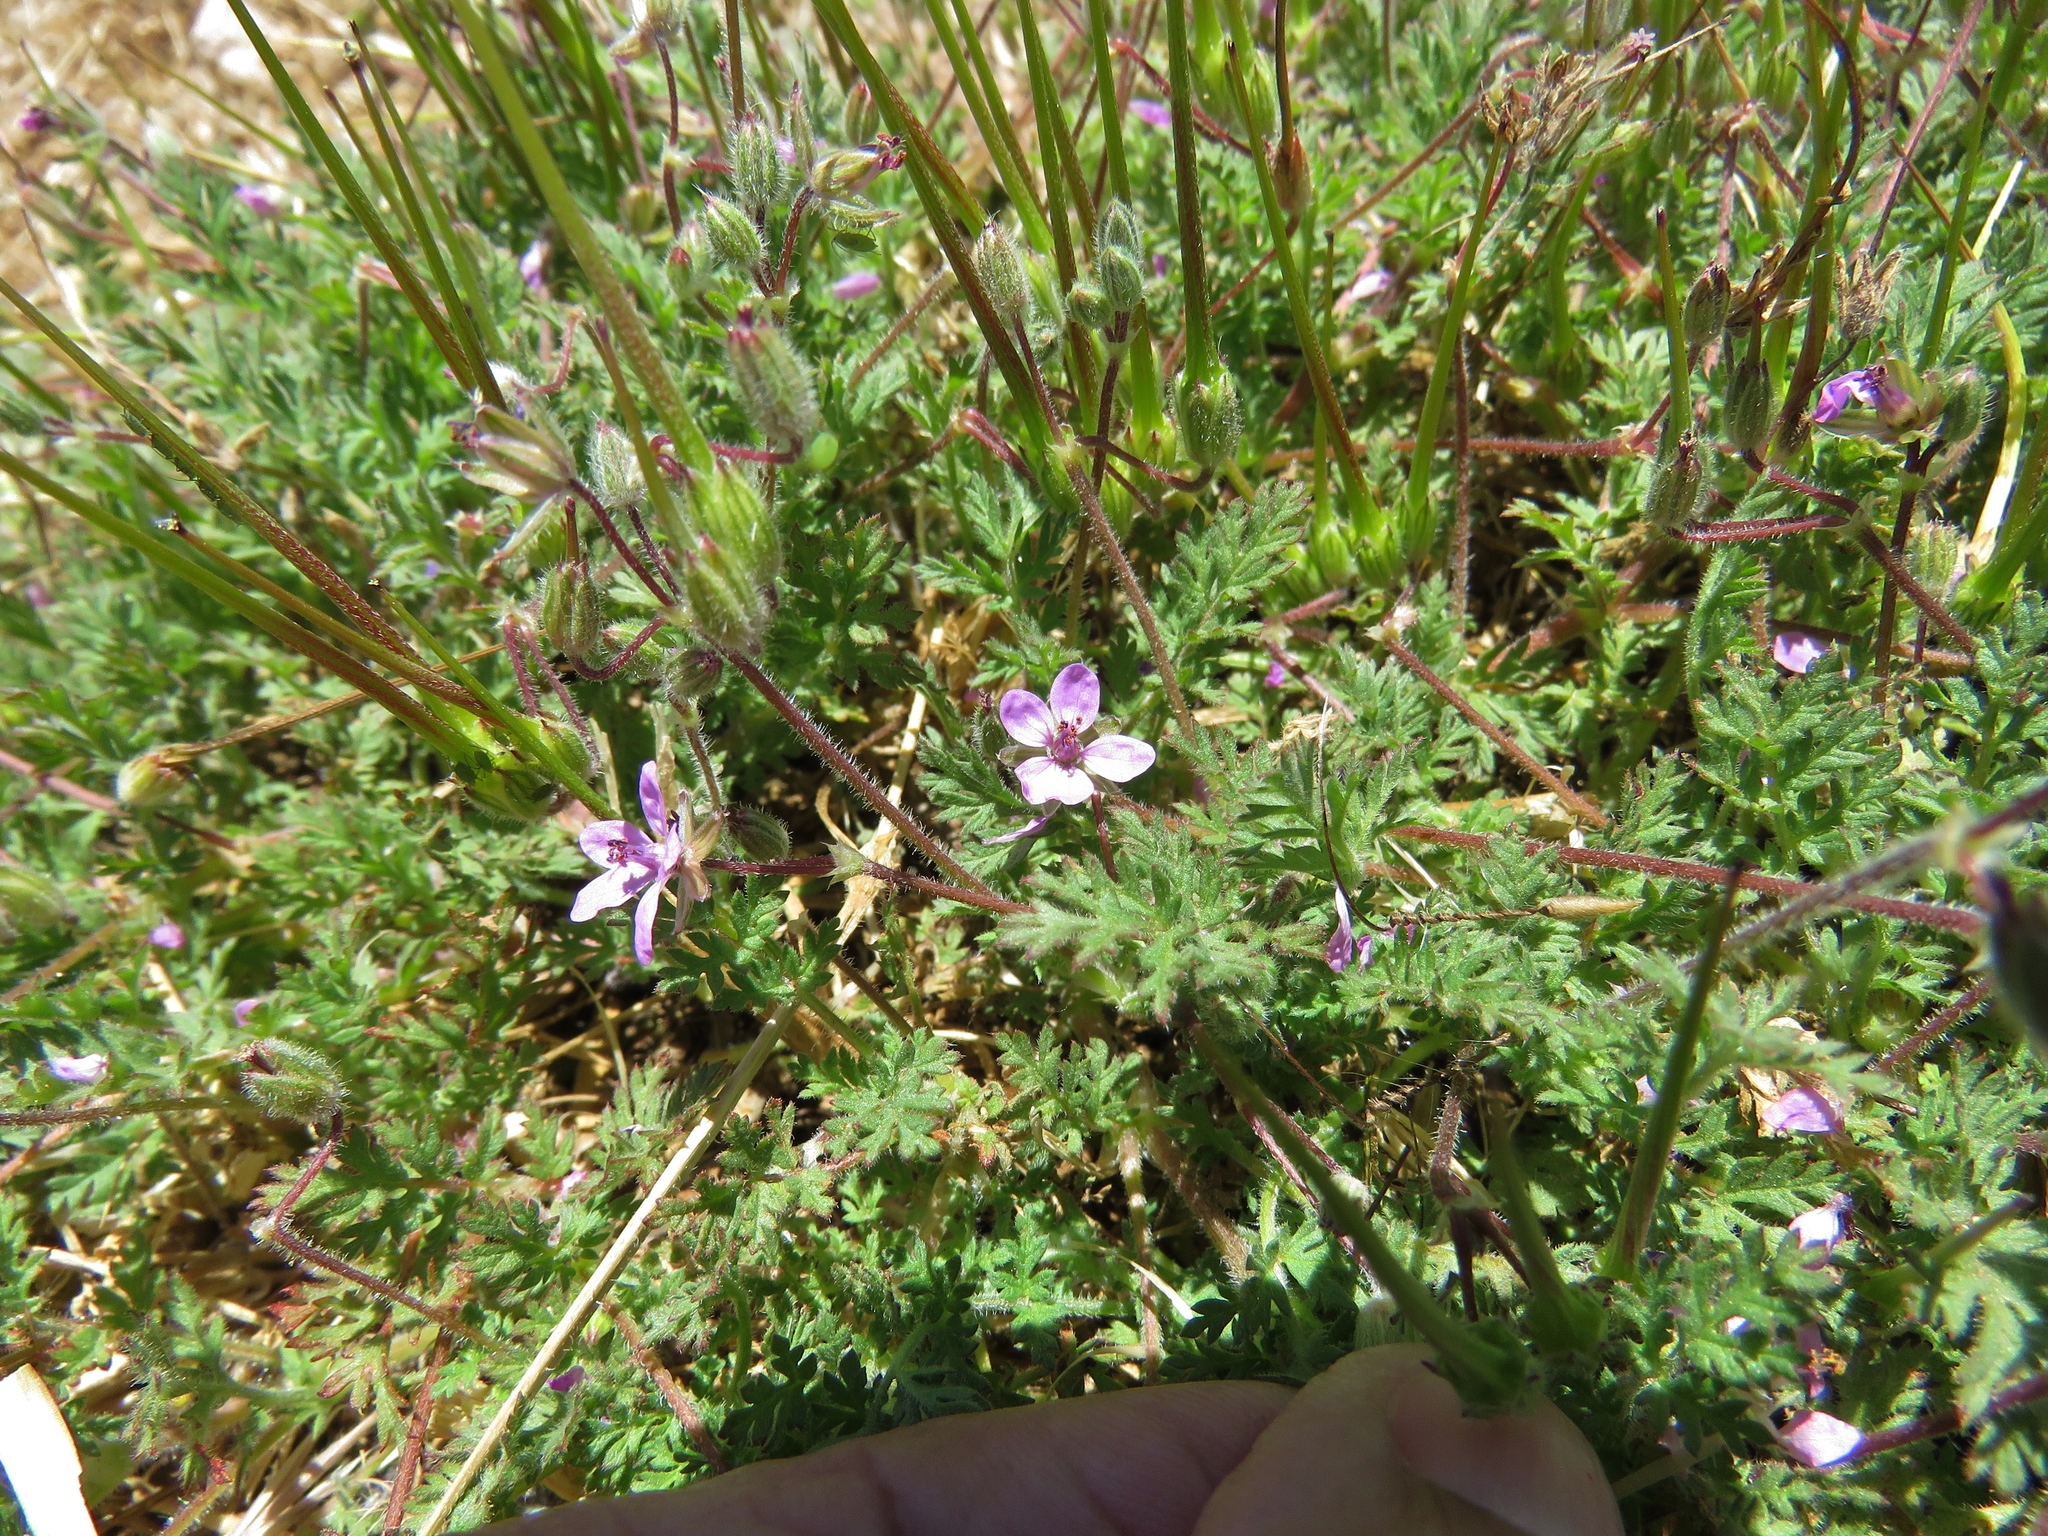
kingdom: Plantae
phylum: Tracheophyta
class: Magnoliopsida
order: Geraniales
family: Geraniaceae
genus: Erodium
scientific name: Erodium cicutarium
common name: Common stork's-bill
